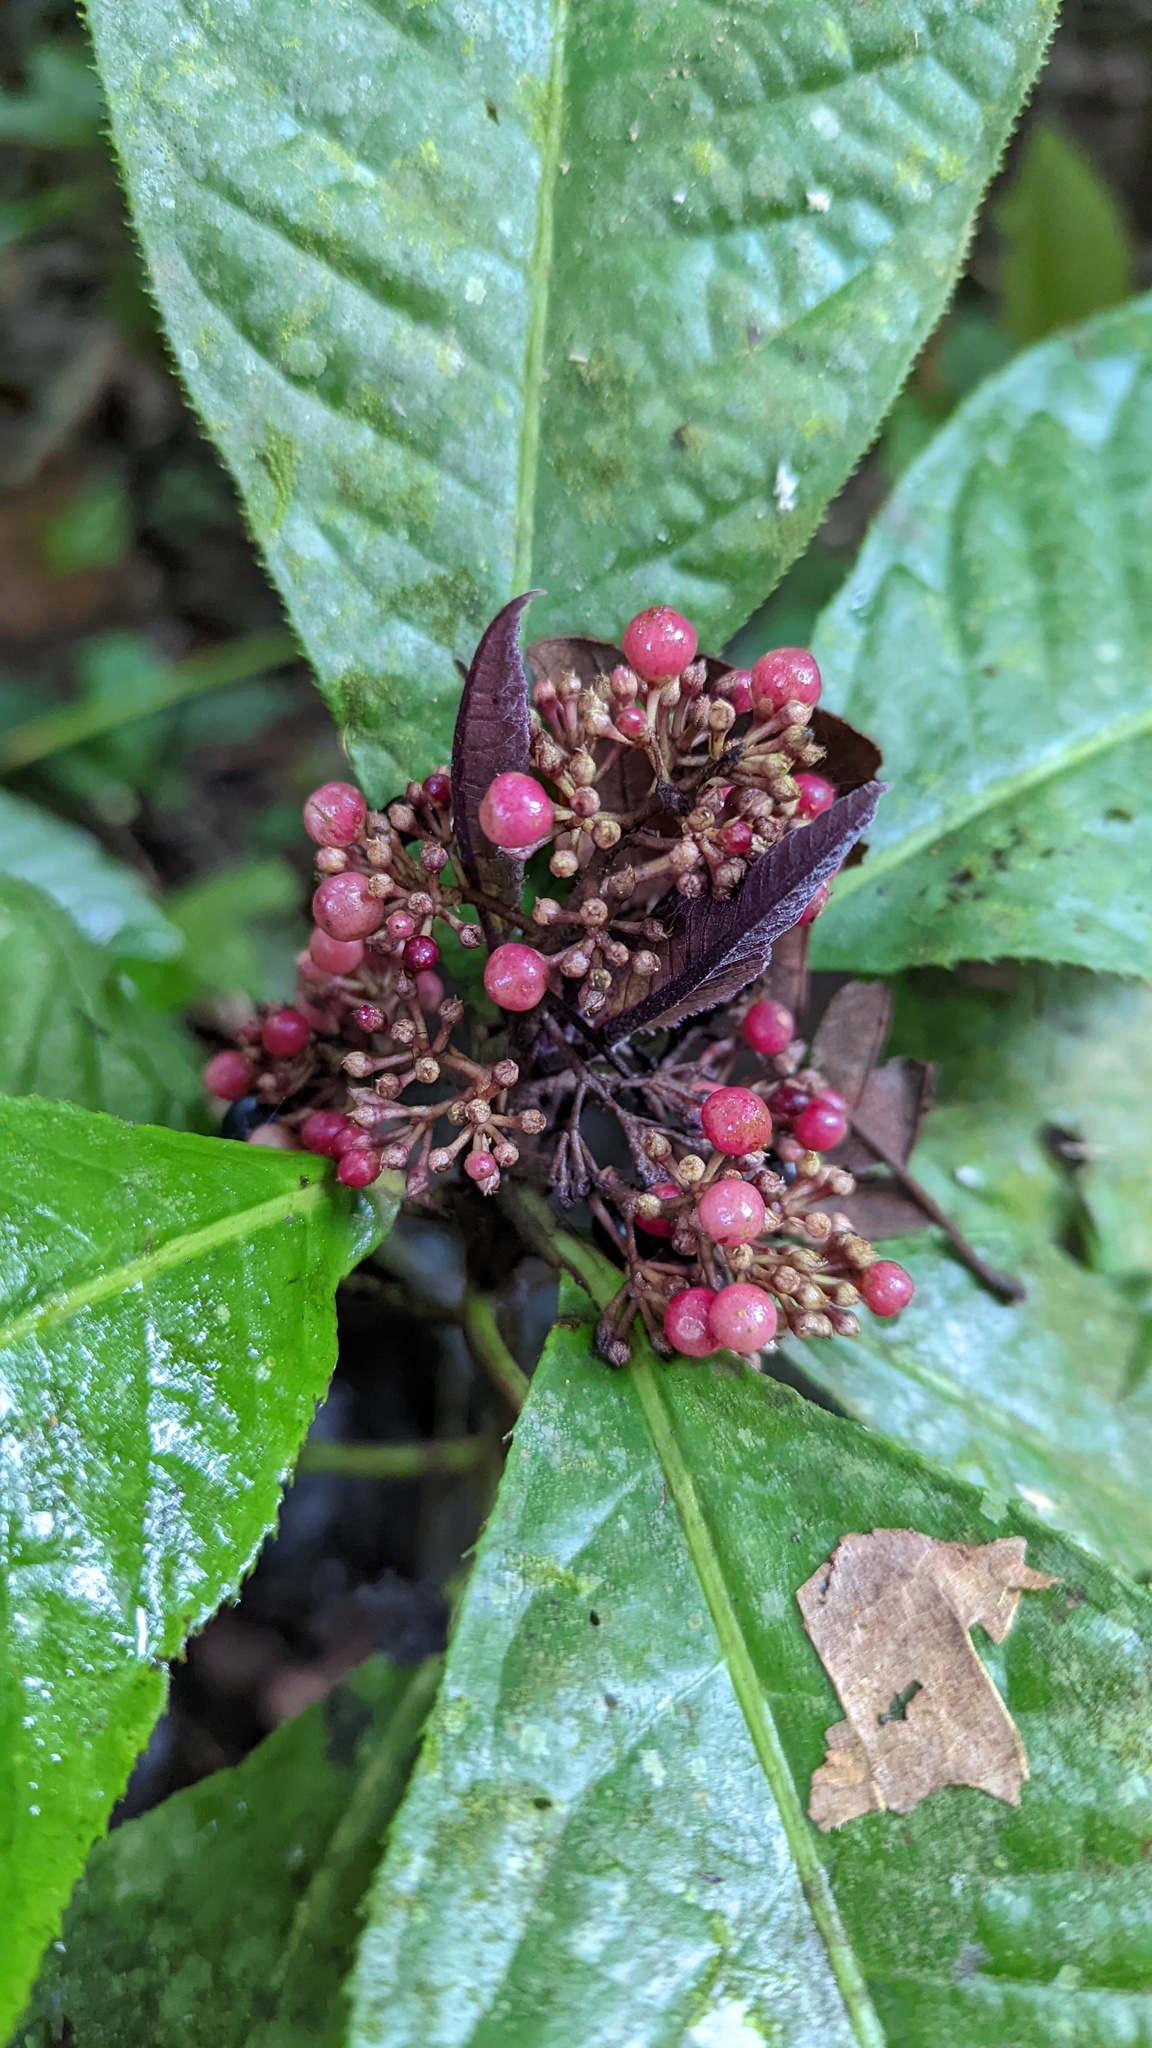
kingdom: Plantae
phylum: Tracheophyta
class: Magnoliopsida
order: Ericales
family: Primulaceae
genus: Ardisia
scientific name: Ardisia pellucida
